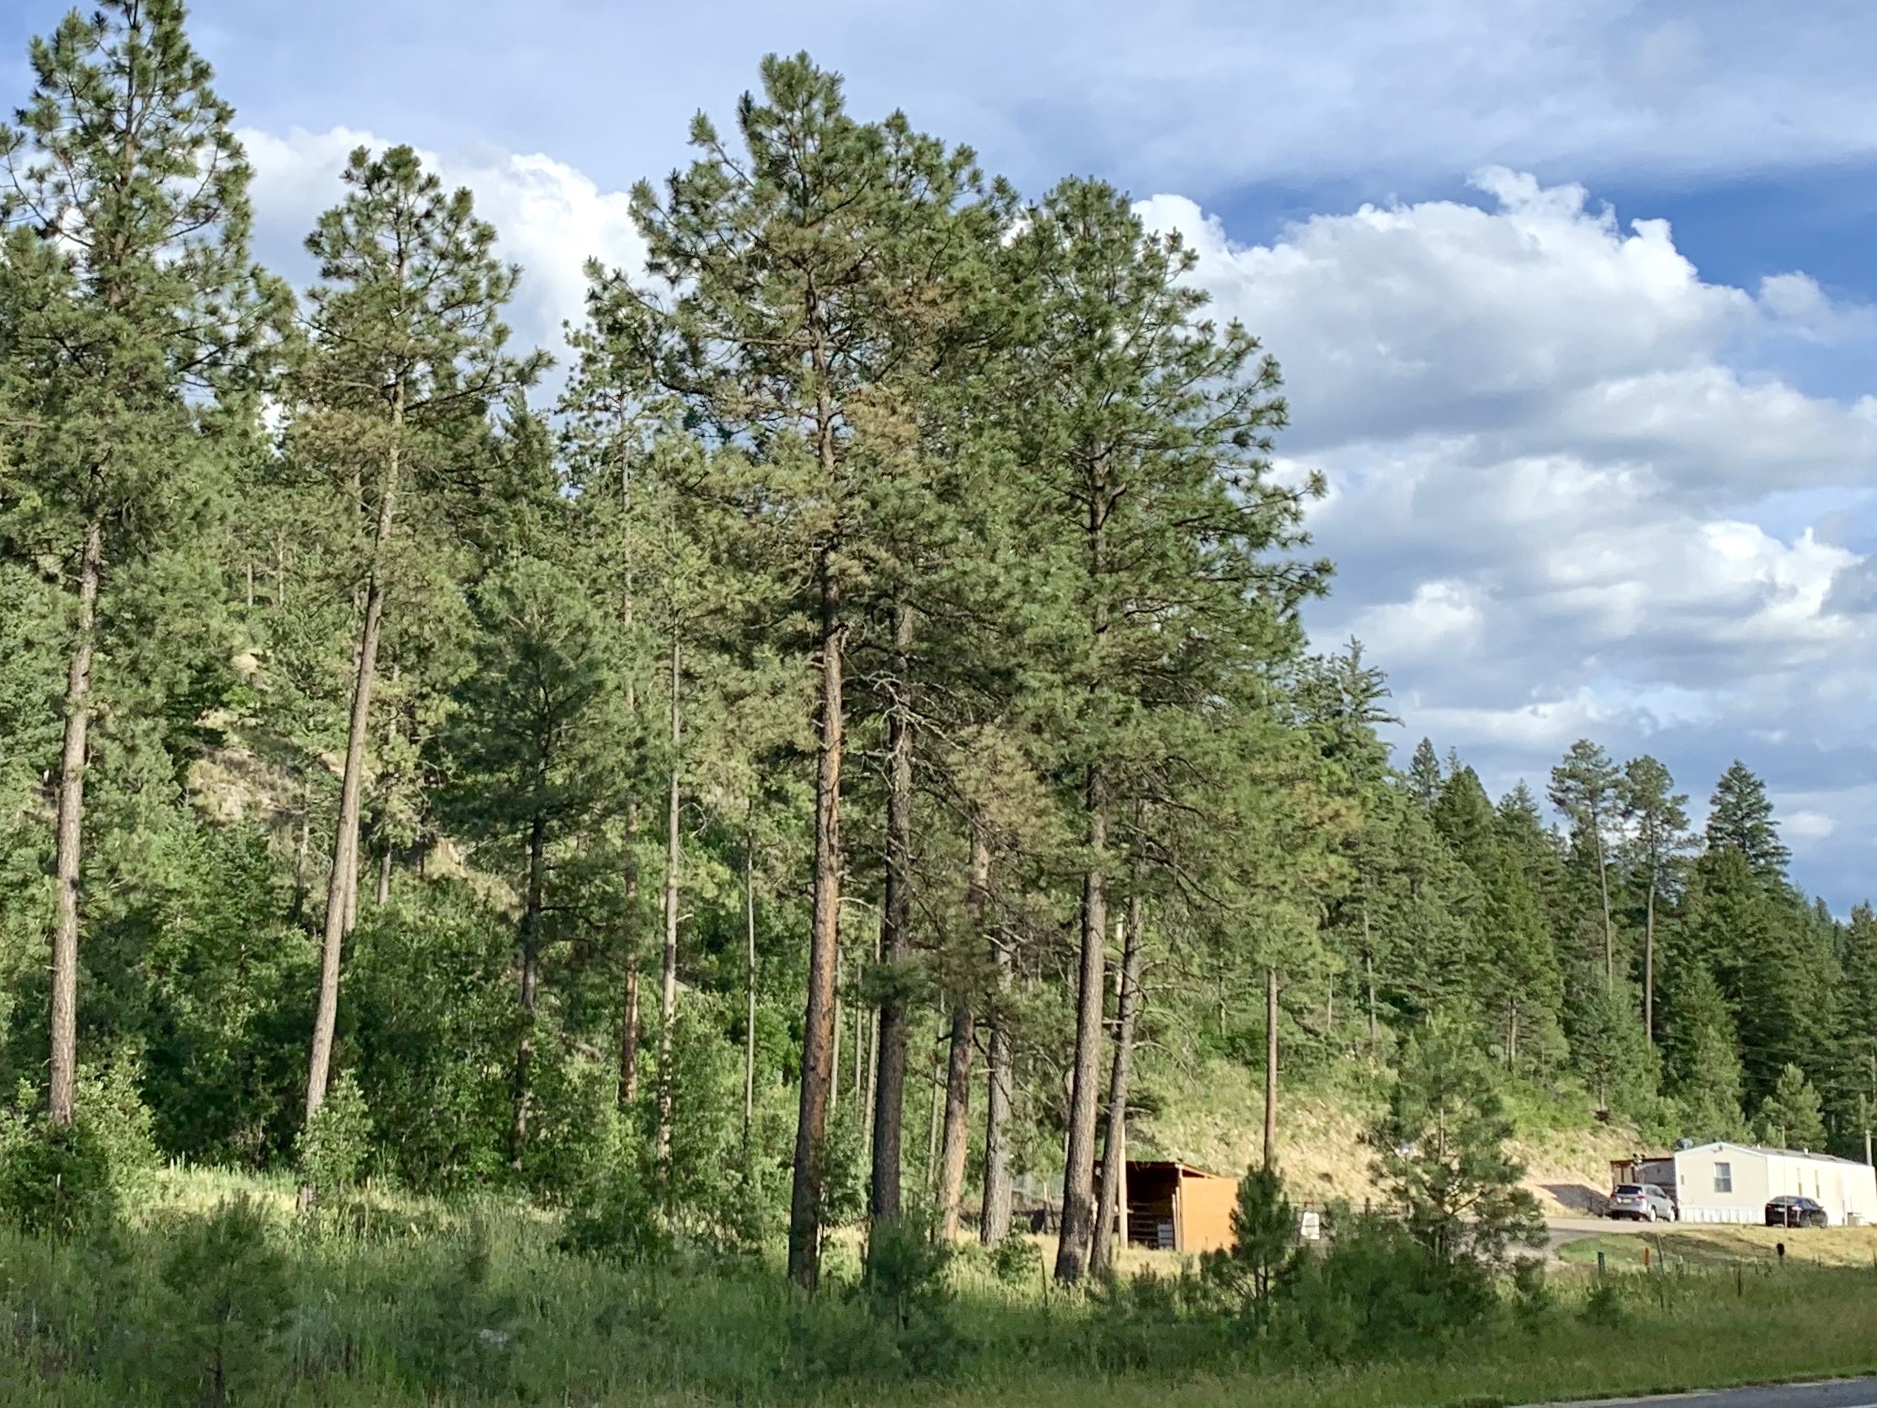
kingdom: Plantae
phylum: Tracheophyta
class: Pinopsida
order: Pinales
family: Pinaceae
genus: Pinus
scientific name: Pinus ponderosa
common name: Western yellow-pine
